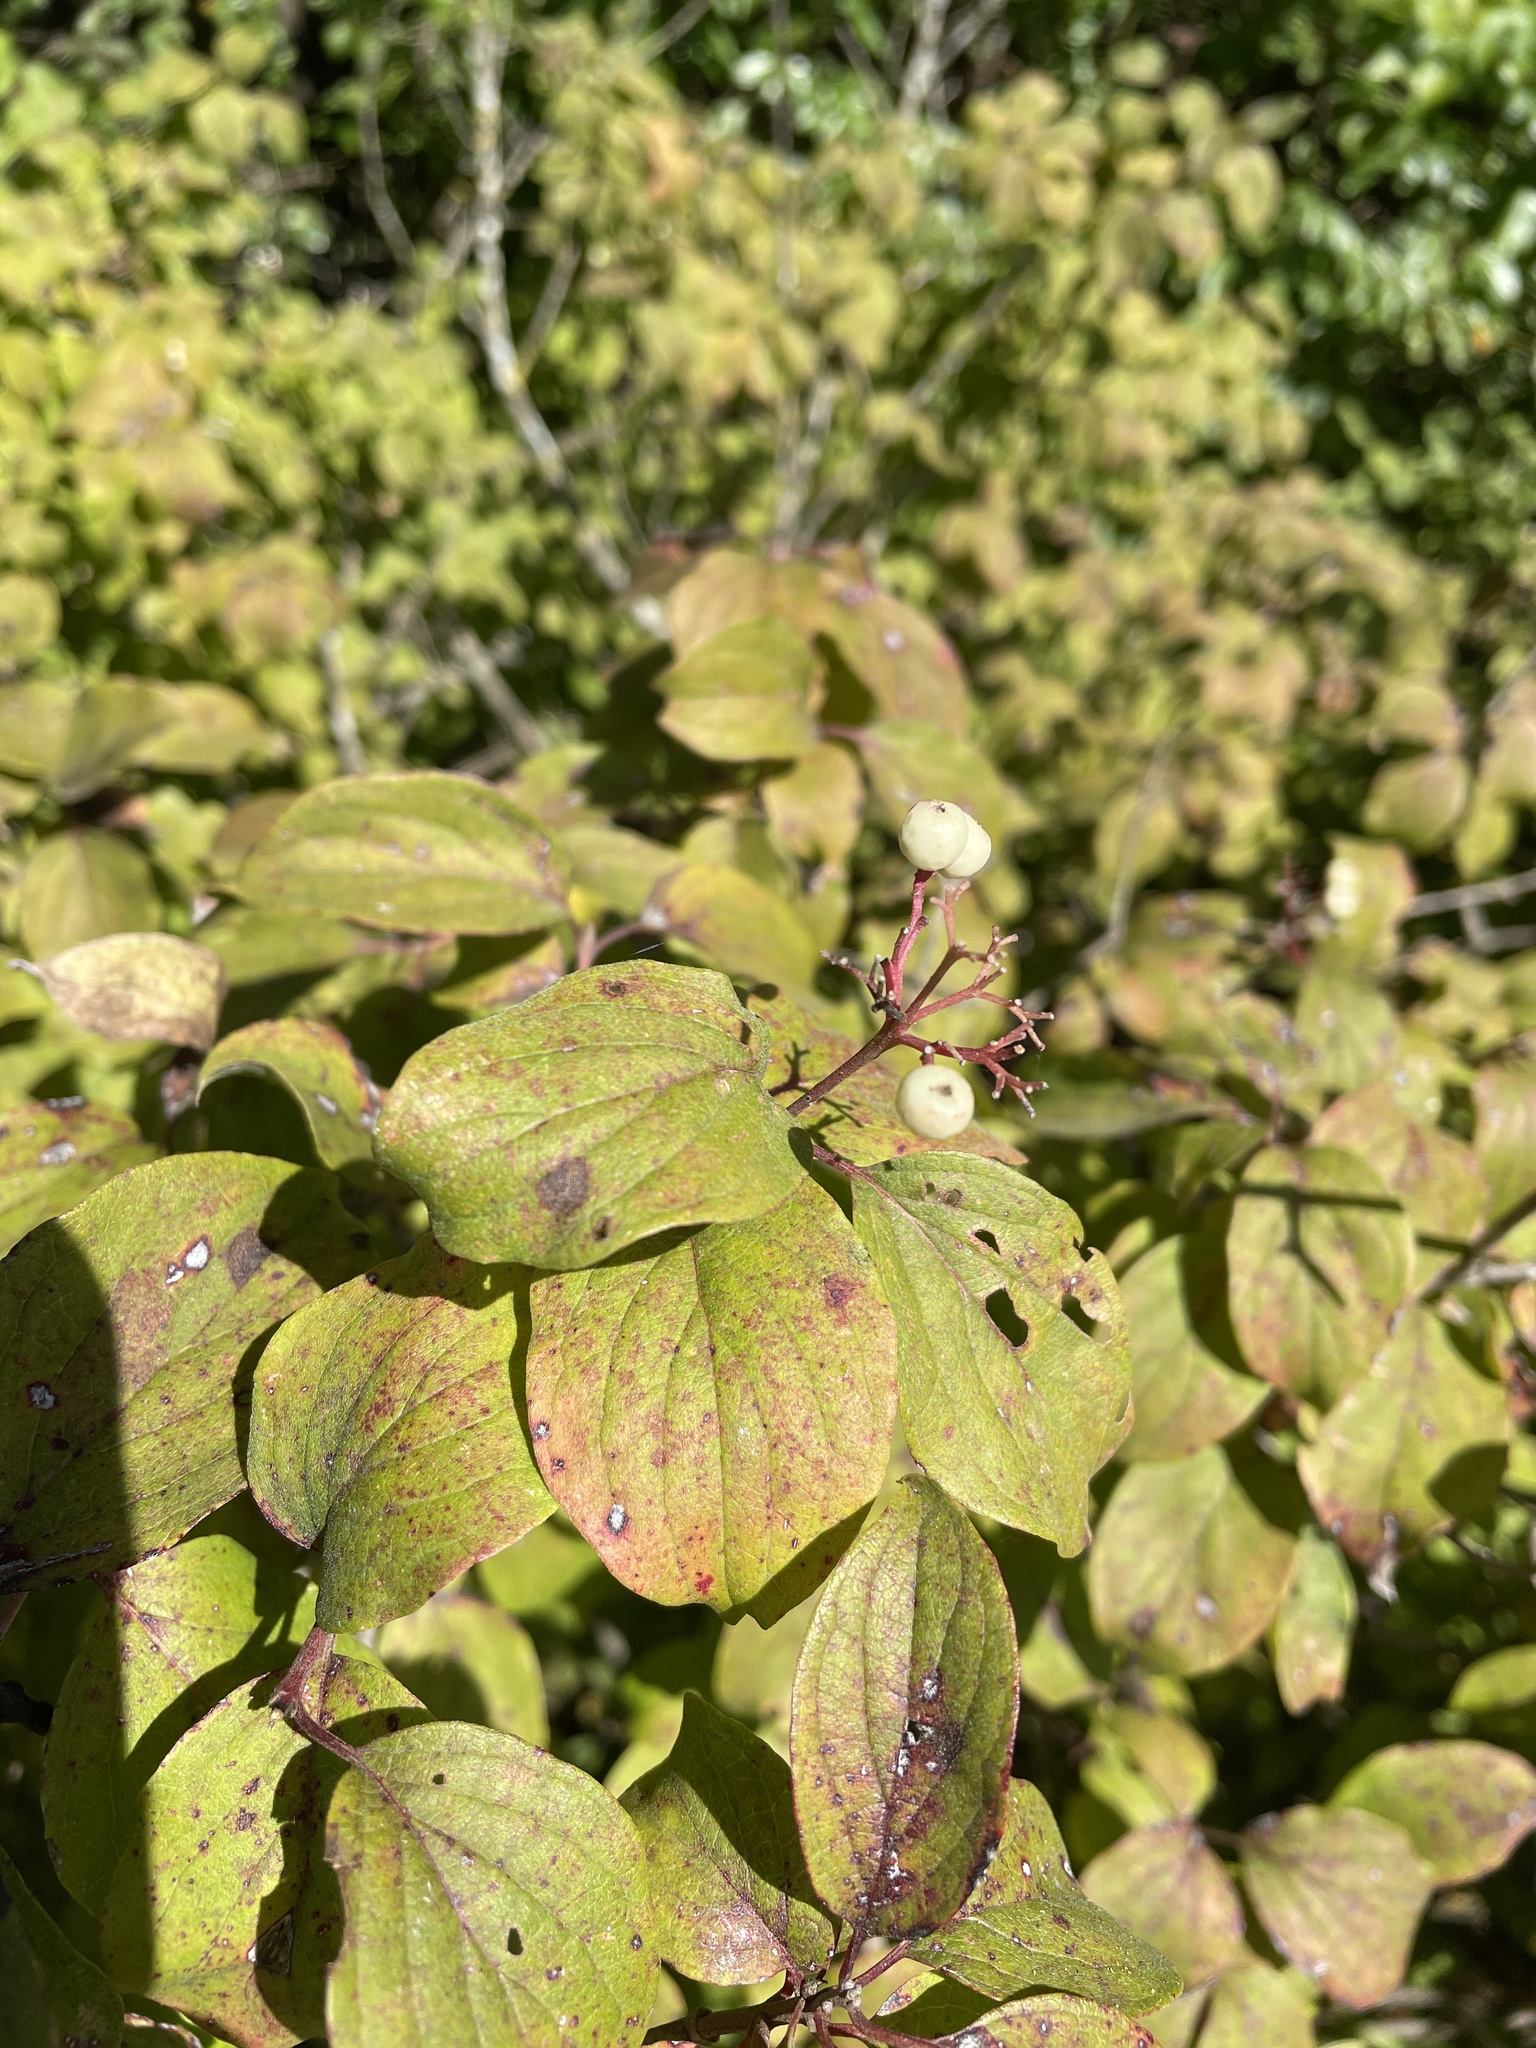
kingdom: Plantae
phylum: Tracheophyta
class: Magnoliopsida
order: Cornales
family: Cornaceae
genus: Cornus
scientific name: Cornus drummondii
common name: Rough-leaf dogwood
